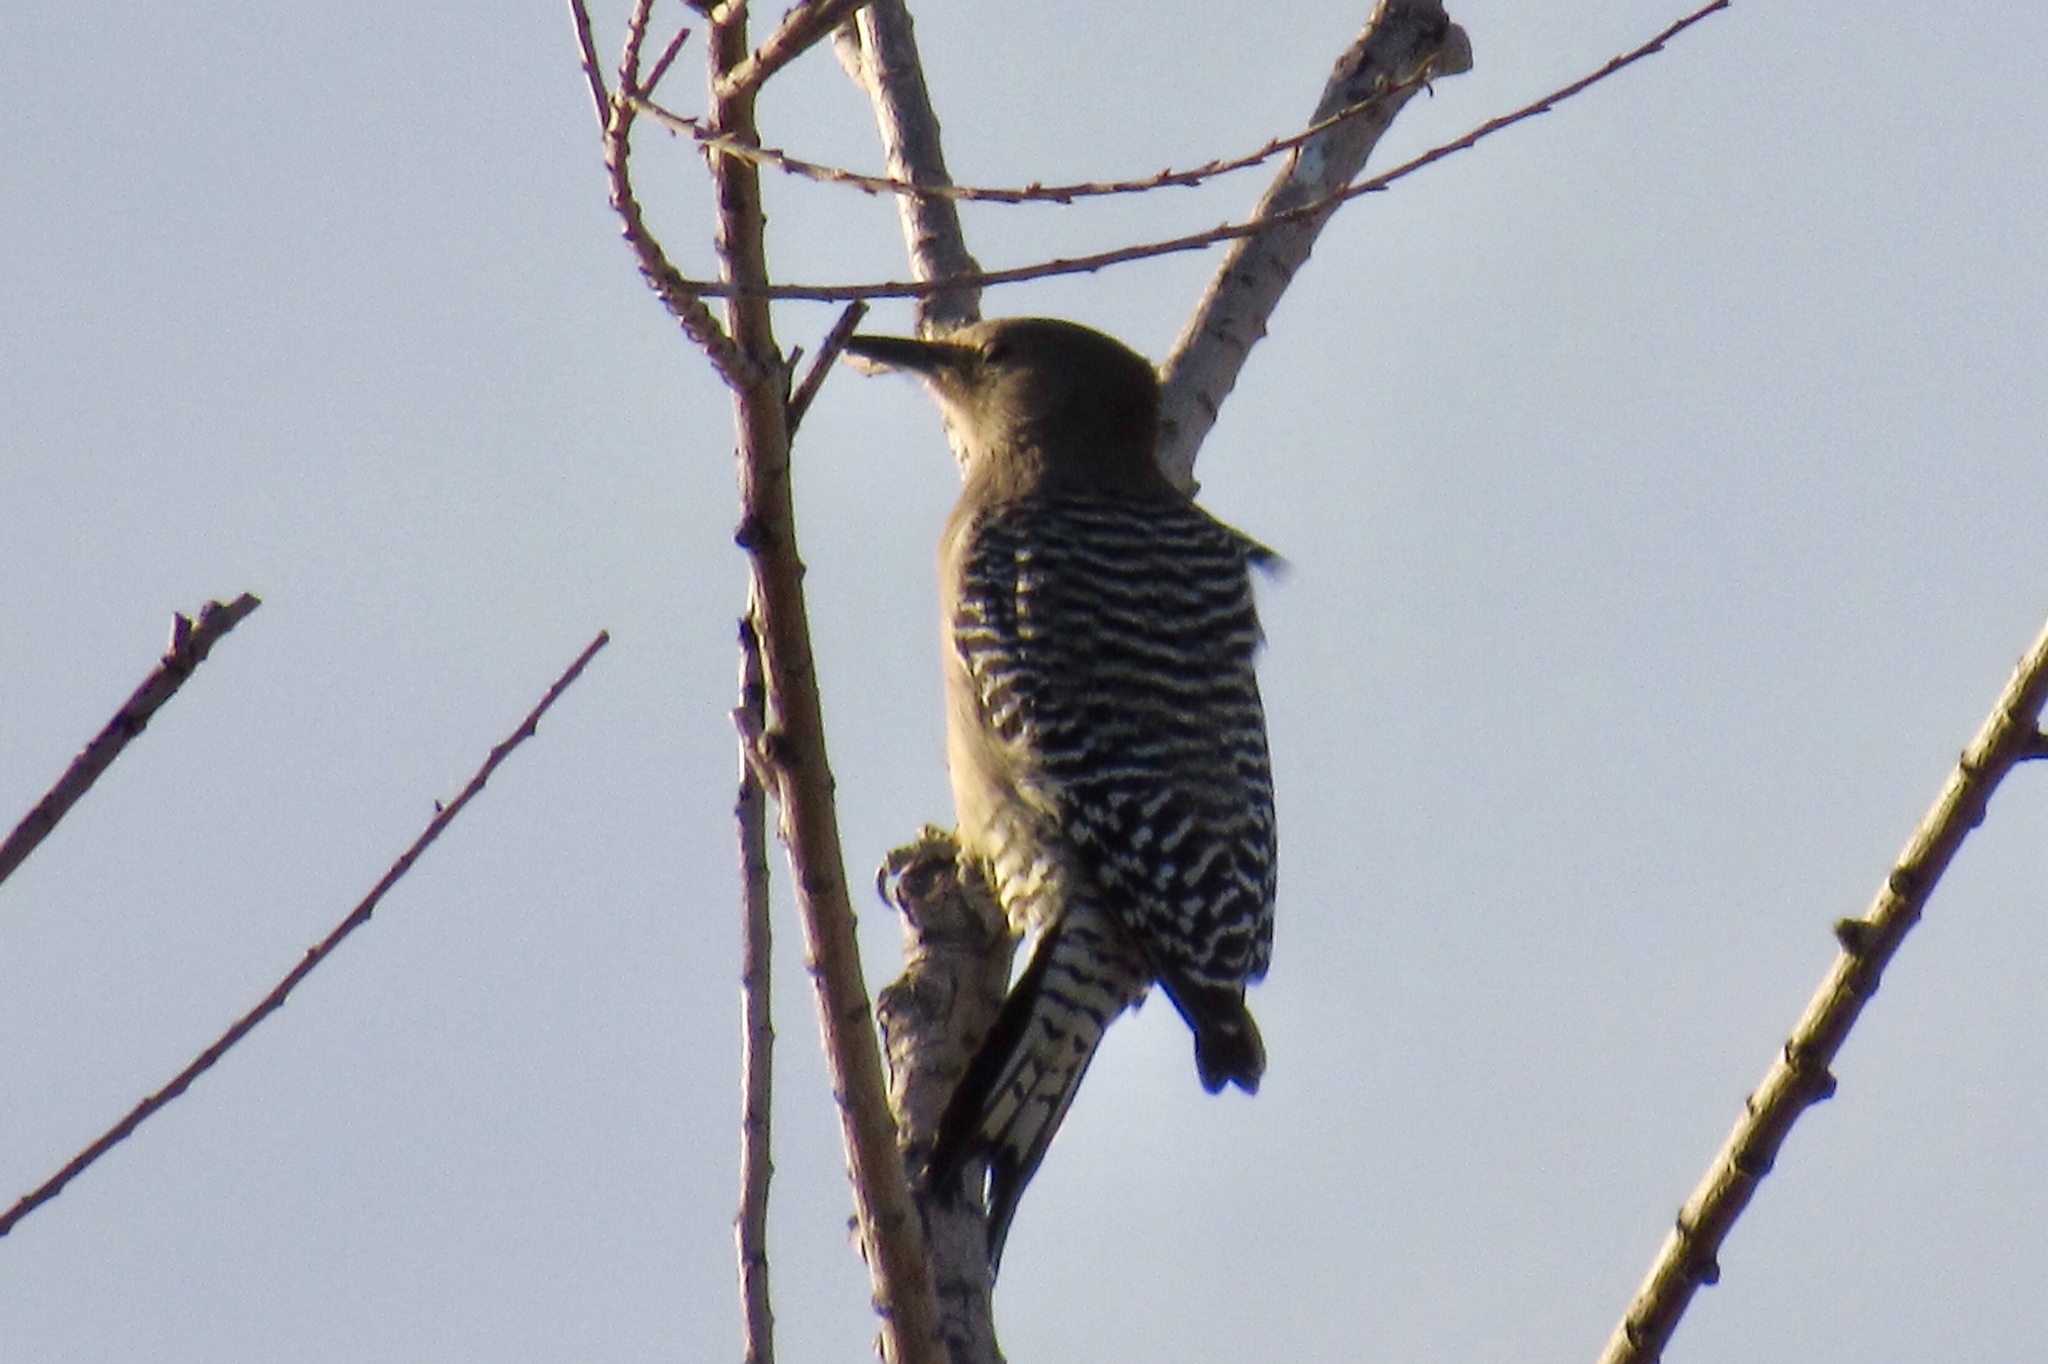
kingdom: Animalia
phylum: Chordata
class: Aves
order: Piciformes
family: Picidae
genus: Melanerpes
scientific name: Melanerpes uropygialis
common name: Gila woodpecker
